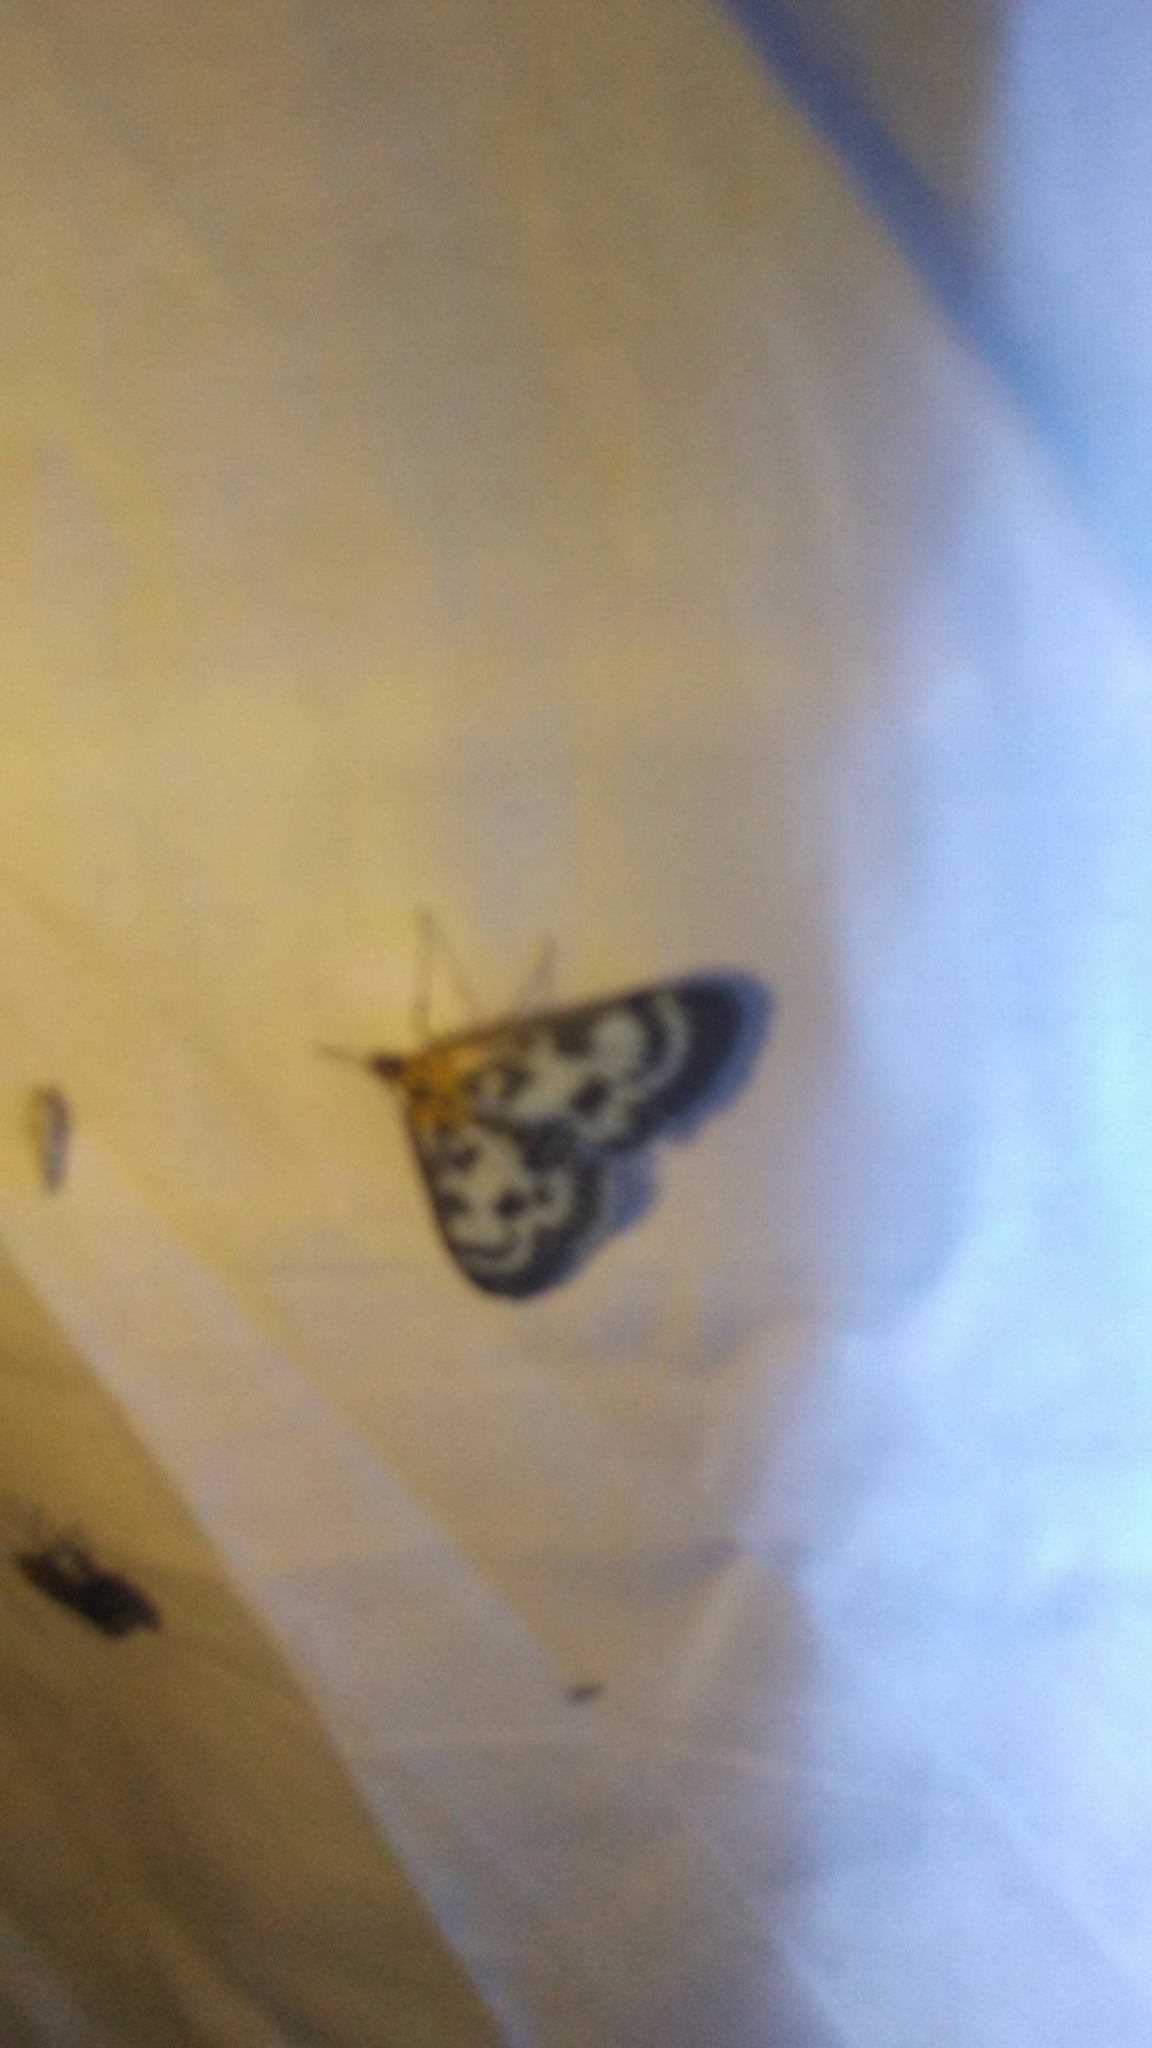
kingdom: Animalia
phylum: Arthropoda
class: Insecta
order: Lepidoptera
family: Crambidae
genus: Anania
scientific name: Anania hortulata
